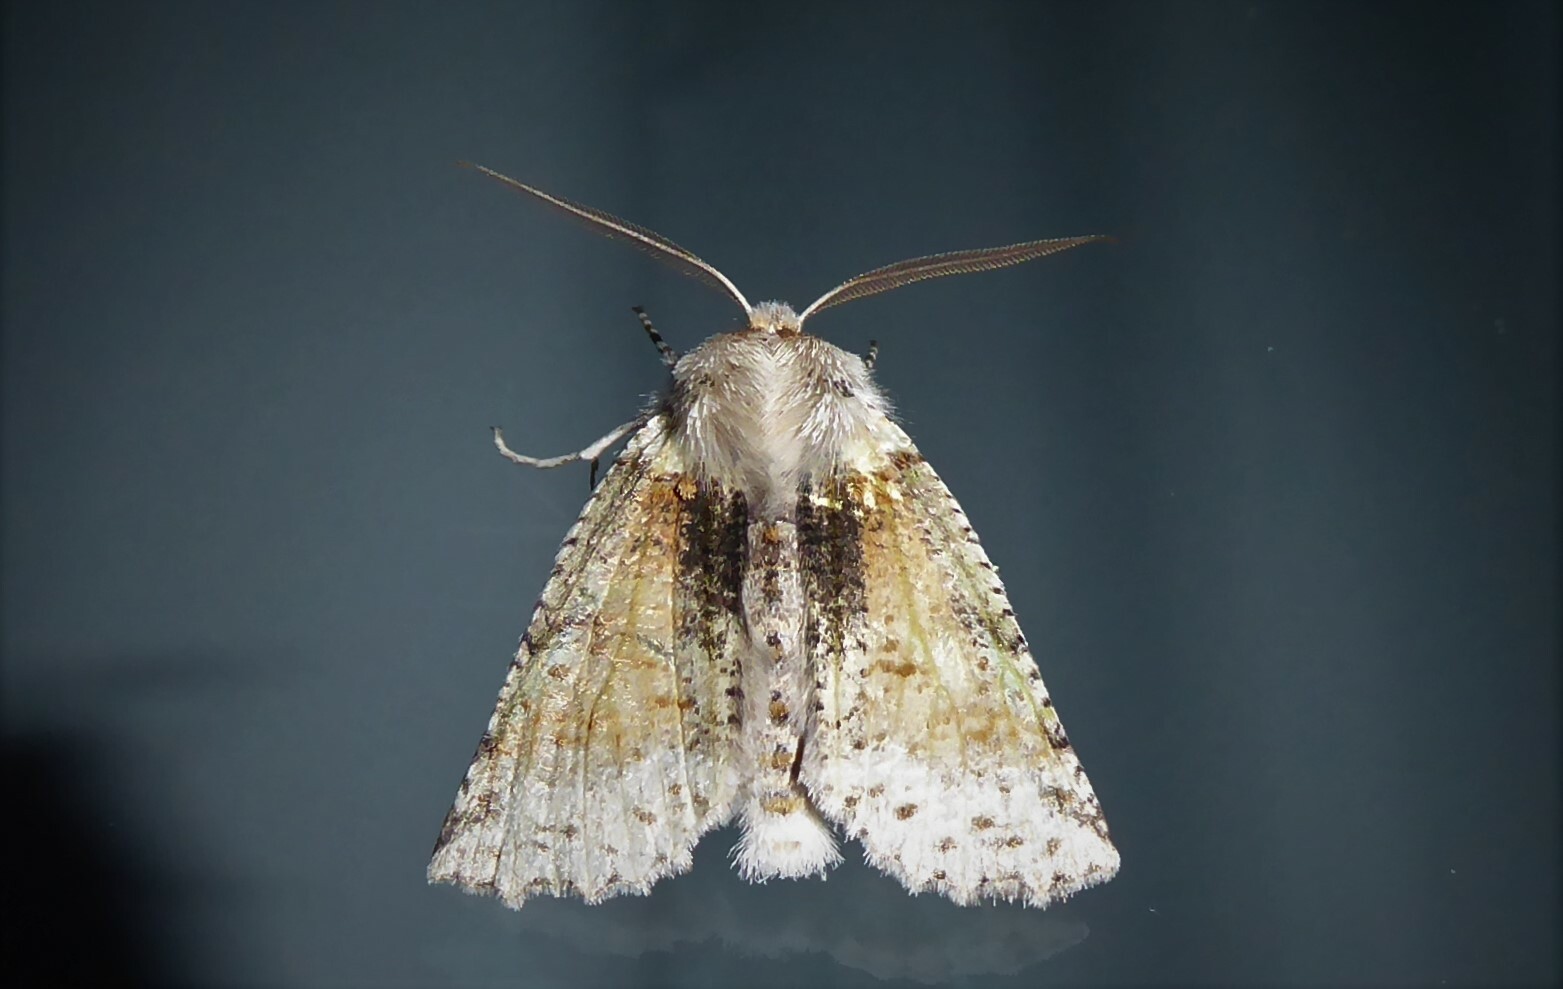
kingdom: Animalia
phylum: Arthropoda
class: Insecta
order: Lepidoptera
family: Geometridae
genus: Declana
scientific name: Declana floccosa
